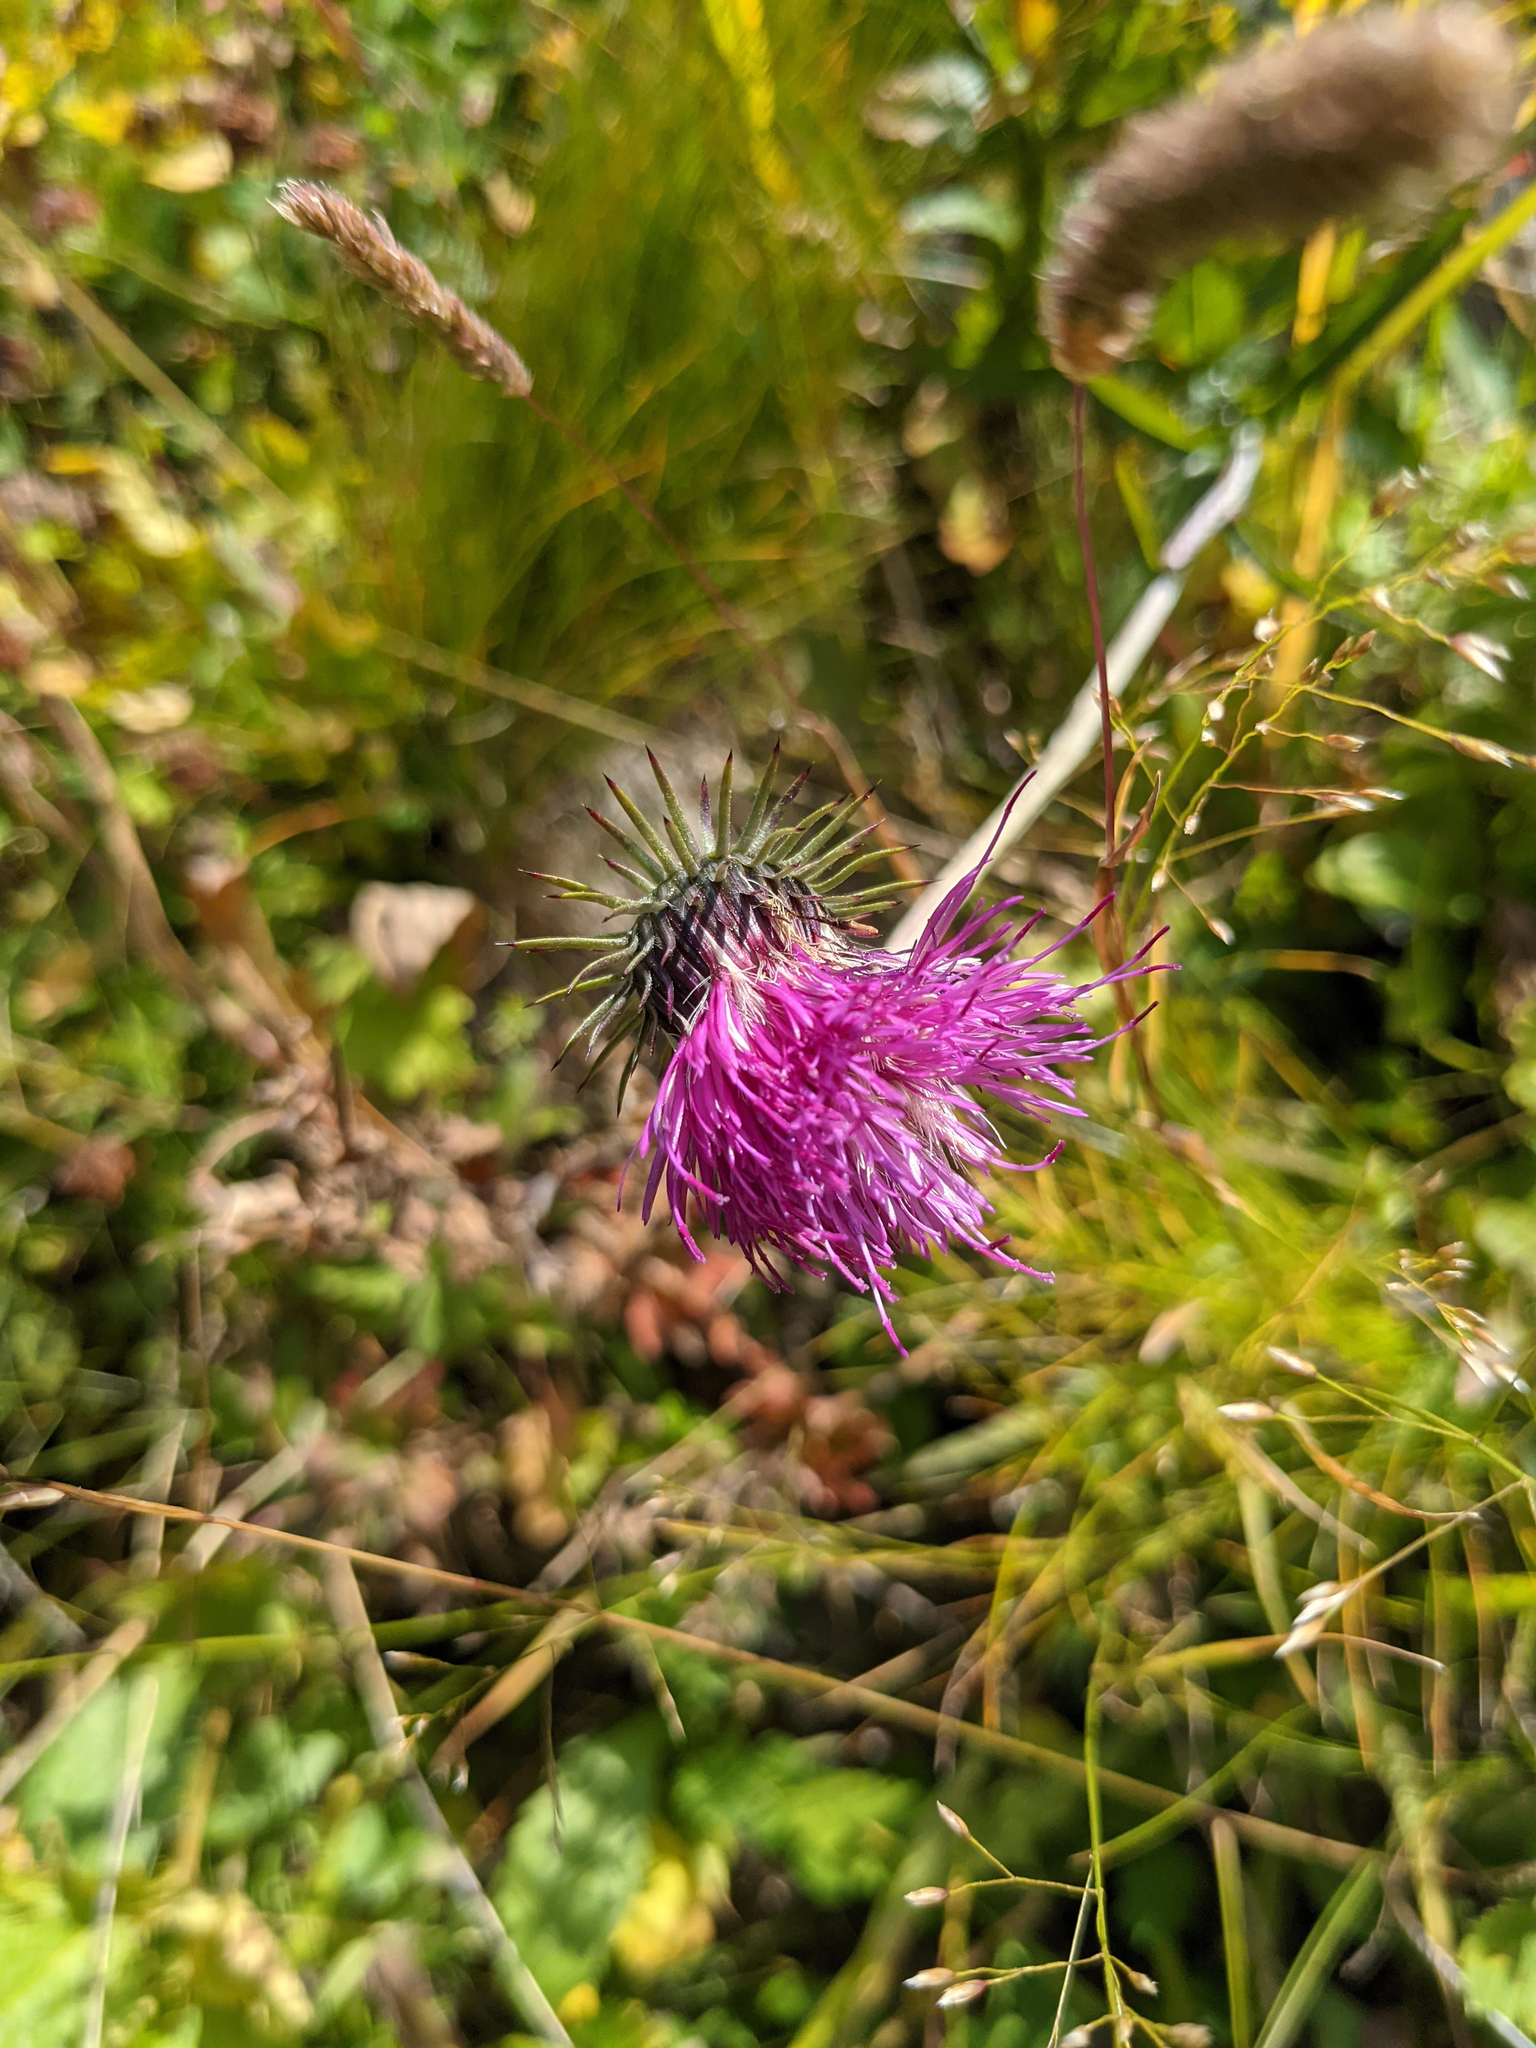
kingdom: Plantae
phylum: Tracheophyta
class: Magnoliopsida
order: Asterales
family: Asteraceae
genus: Carduus
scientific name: Carduus defloratus
